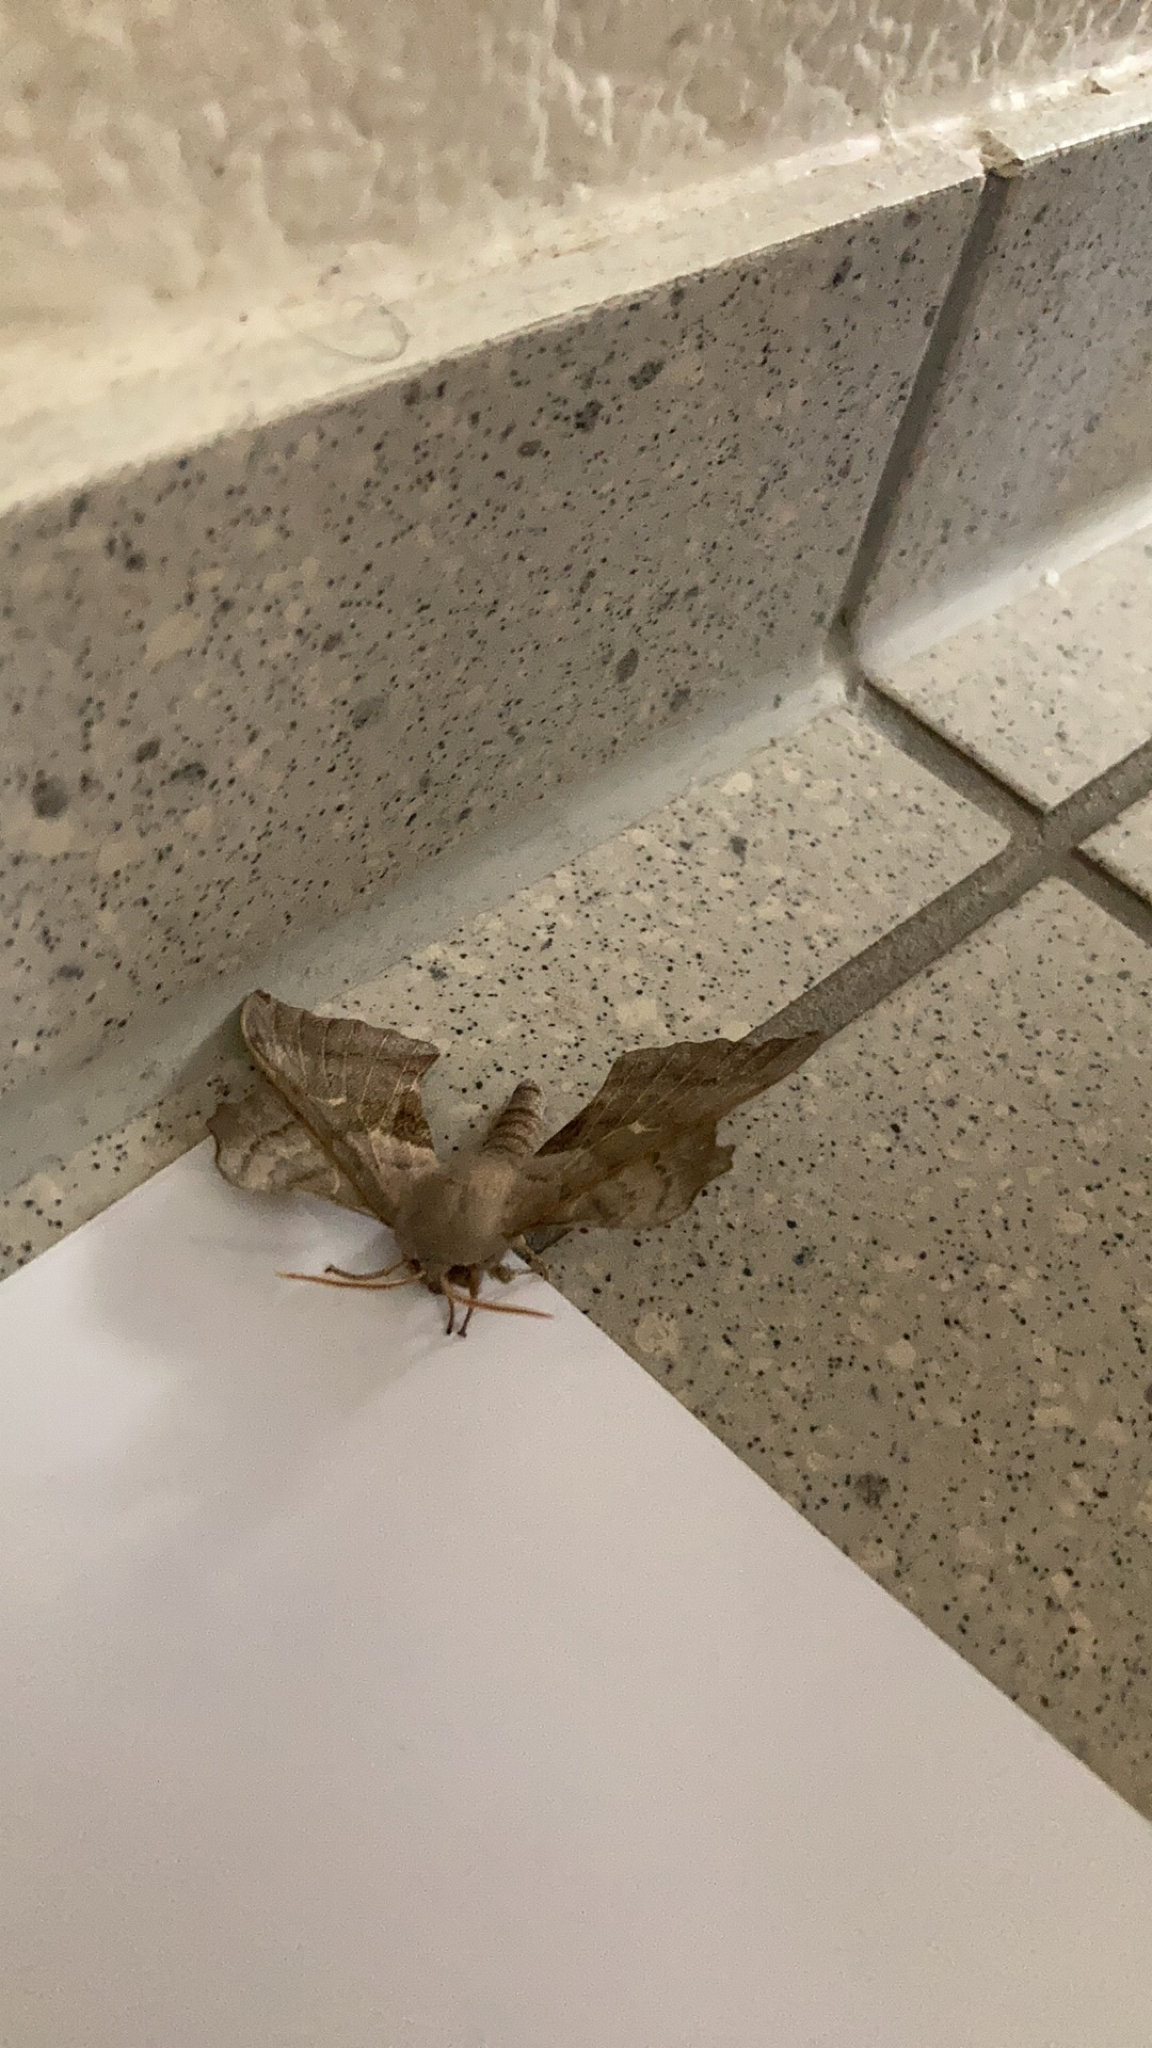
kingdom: Animalia
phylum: Arthropoda
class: Insecta
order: Lepidoptera
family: Sphingidae
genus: Laothoe
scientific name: Laothoe populi
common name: Poplar hawk-moth
